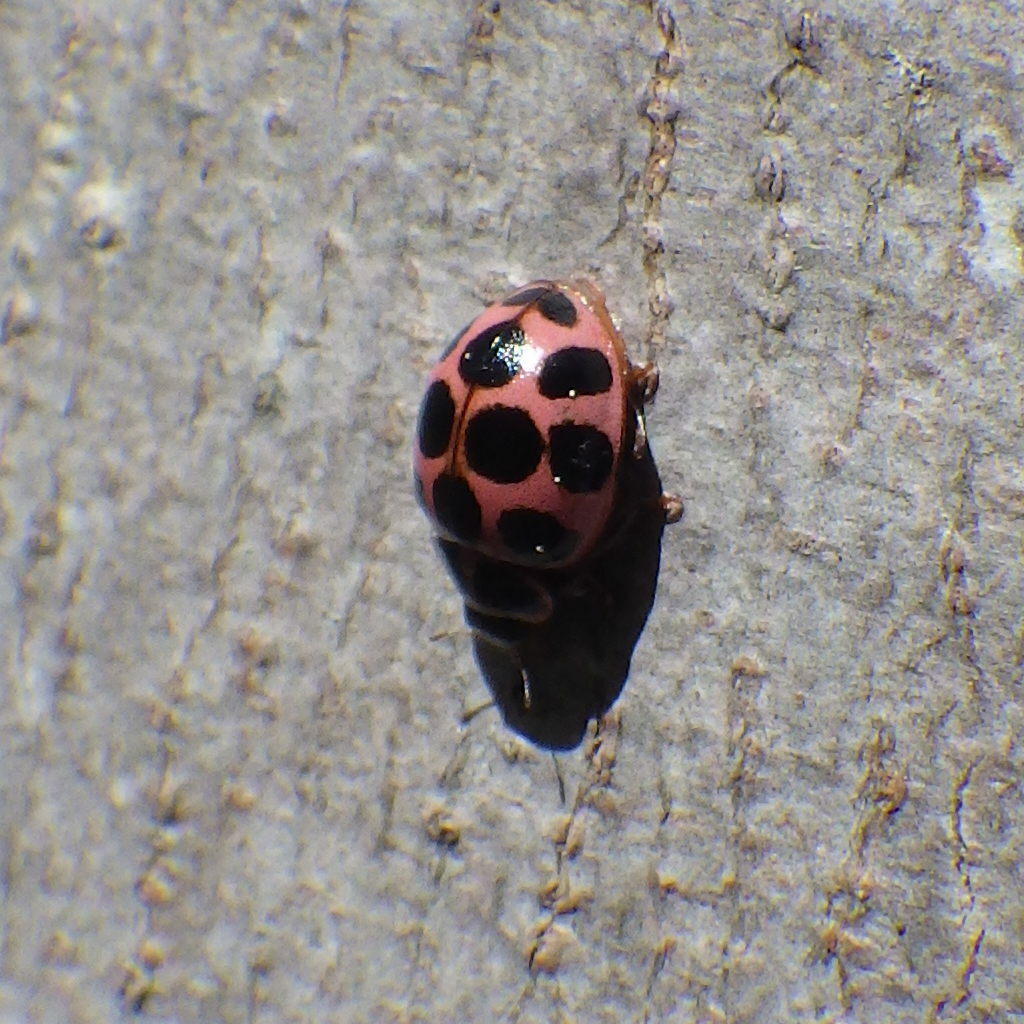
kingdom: Animalia
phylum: Arthropoda
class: Insecta
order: Coleoptera
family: Coccinellidae
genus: Calvia
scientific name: Calvia quatuordecimguttata
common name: Cream-spot ladybird
